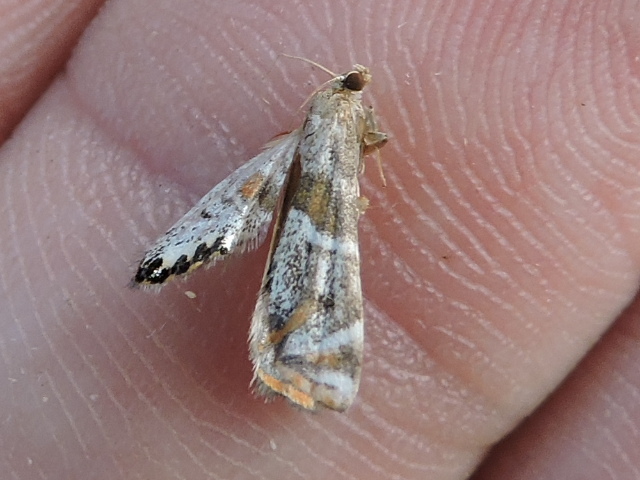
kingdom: Animalia
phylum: Arthropoda
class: Insecta
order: Lepidoptera
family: Crambidae
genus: Petrophila
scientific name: Petrophila jaliscalis
